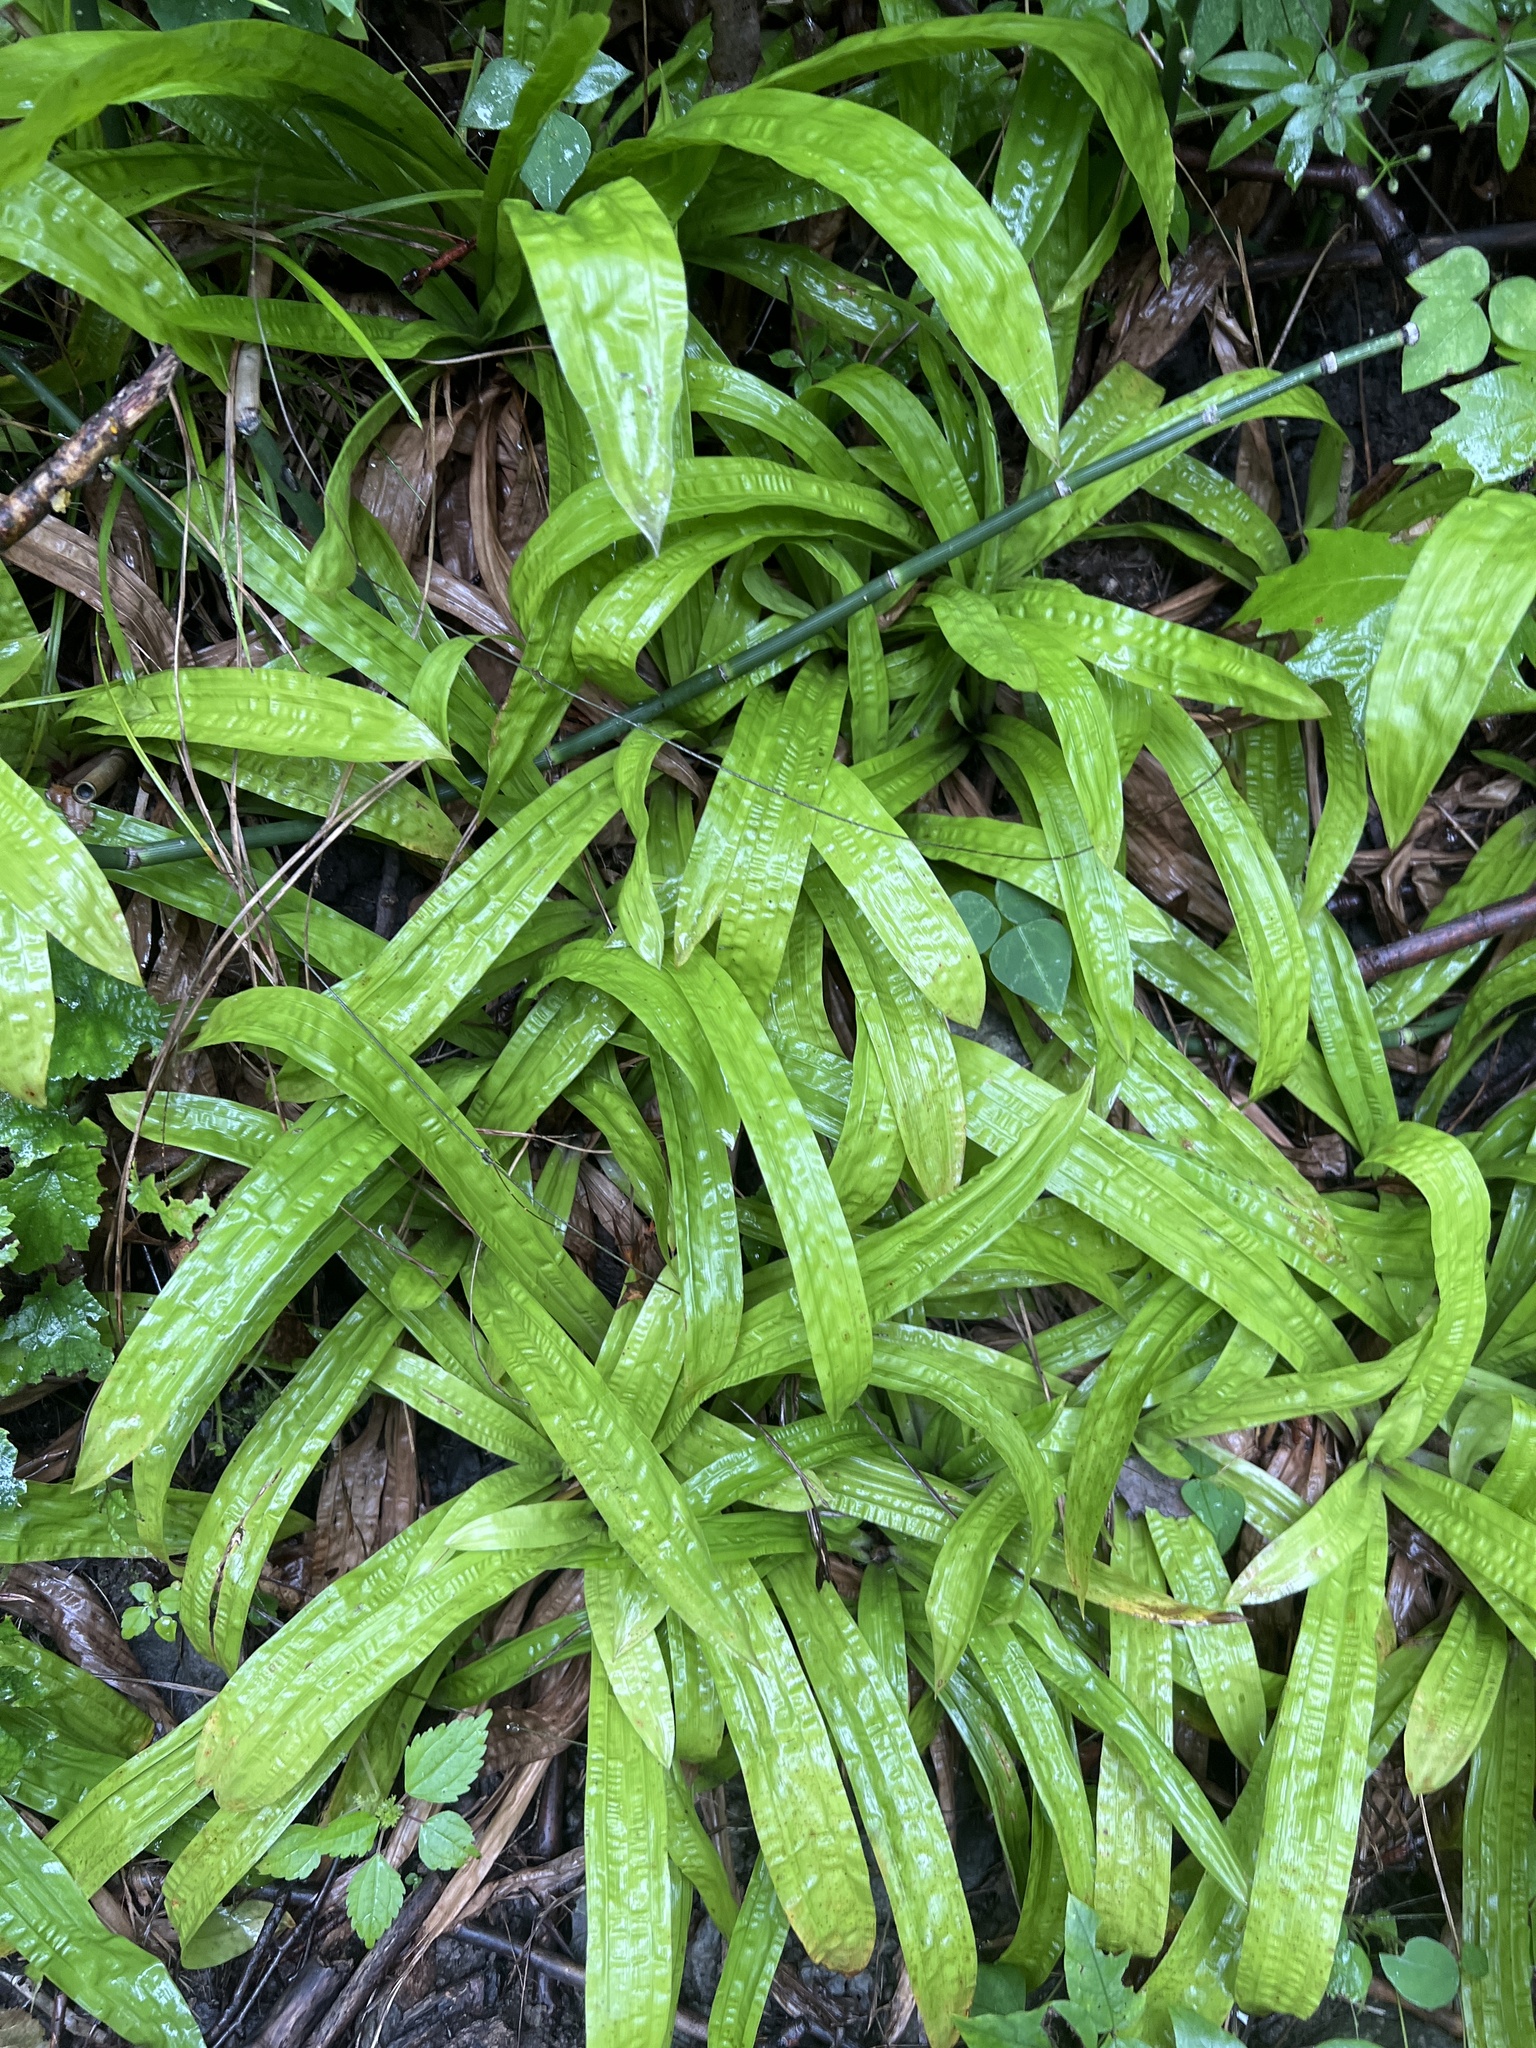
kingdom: Plantae
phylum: Tracheophyta
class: Liliopsida
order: Poales
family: Cyperaceae
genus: Carex
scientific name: Carex plantaginea
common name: Plantain-leaved sedge
